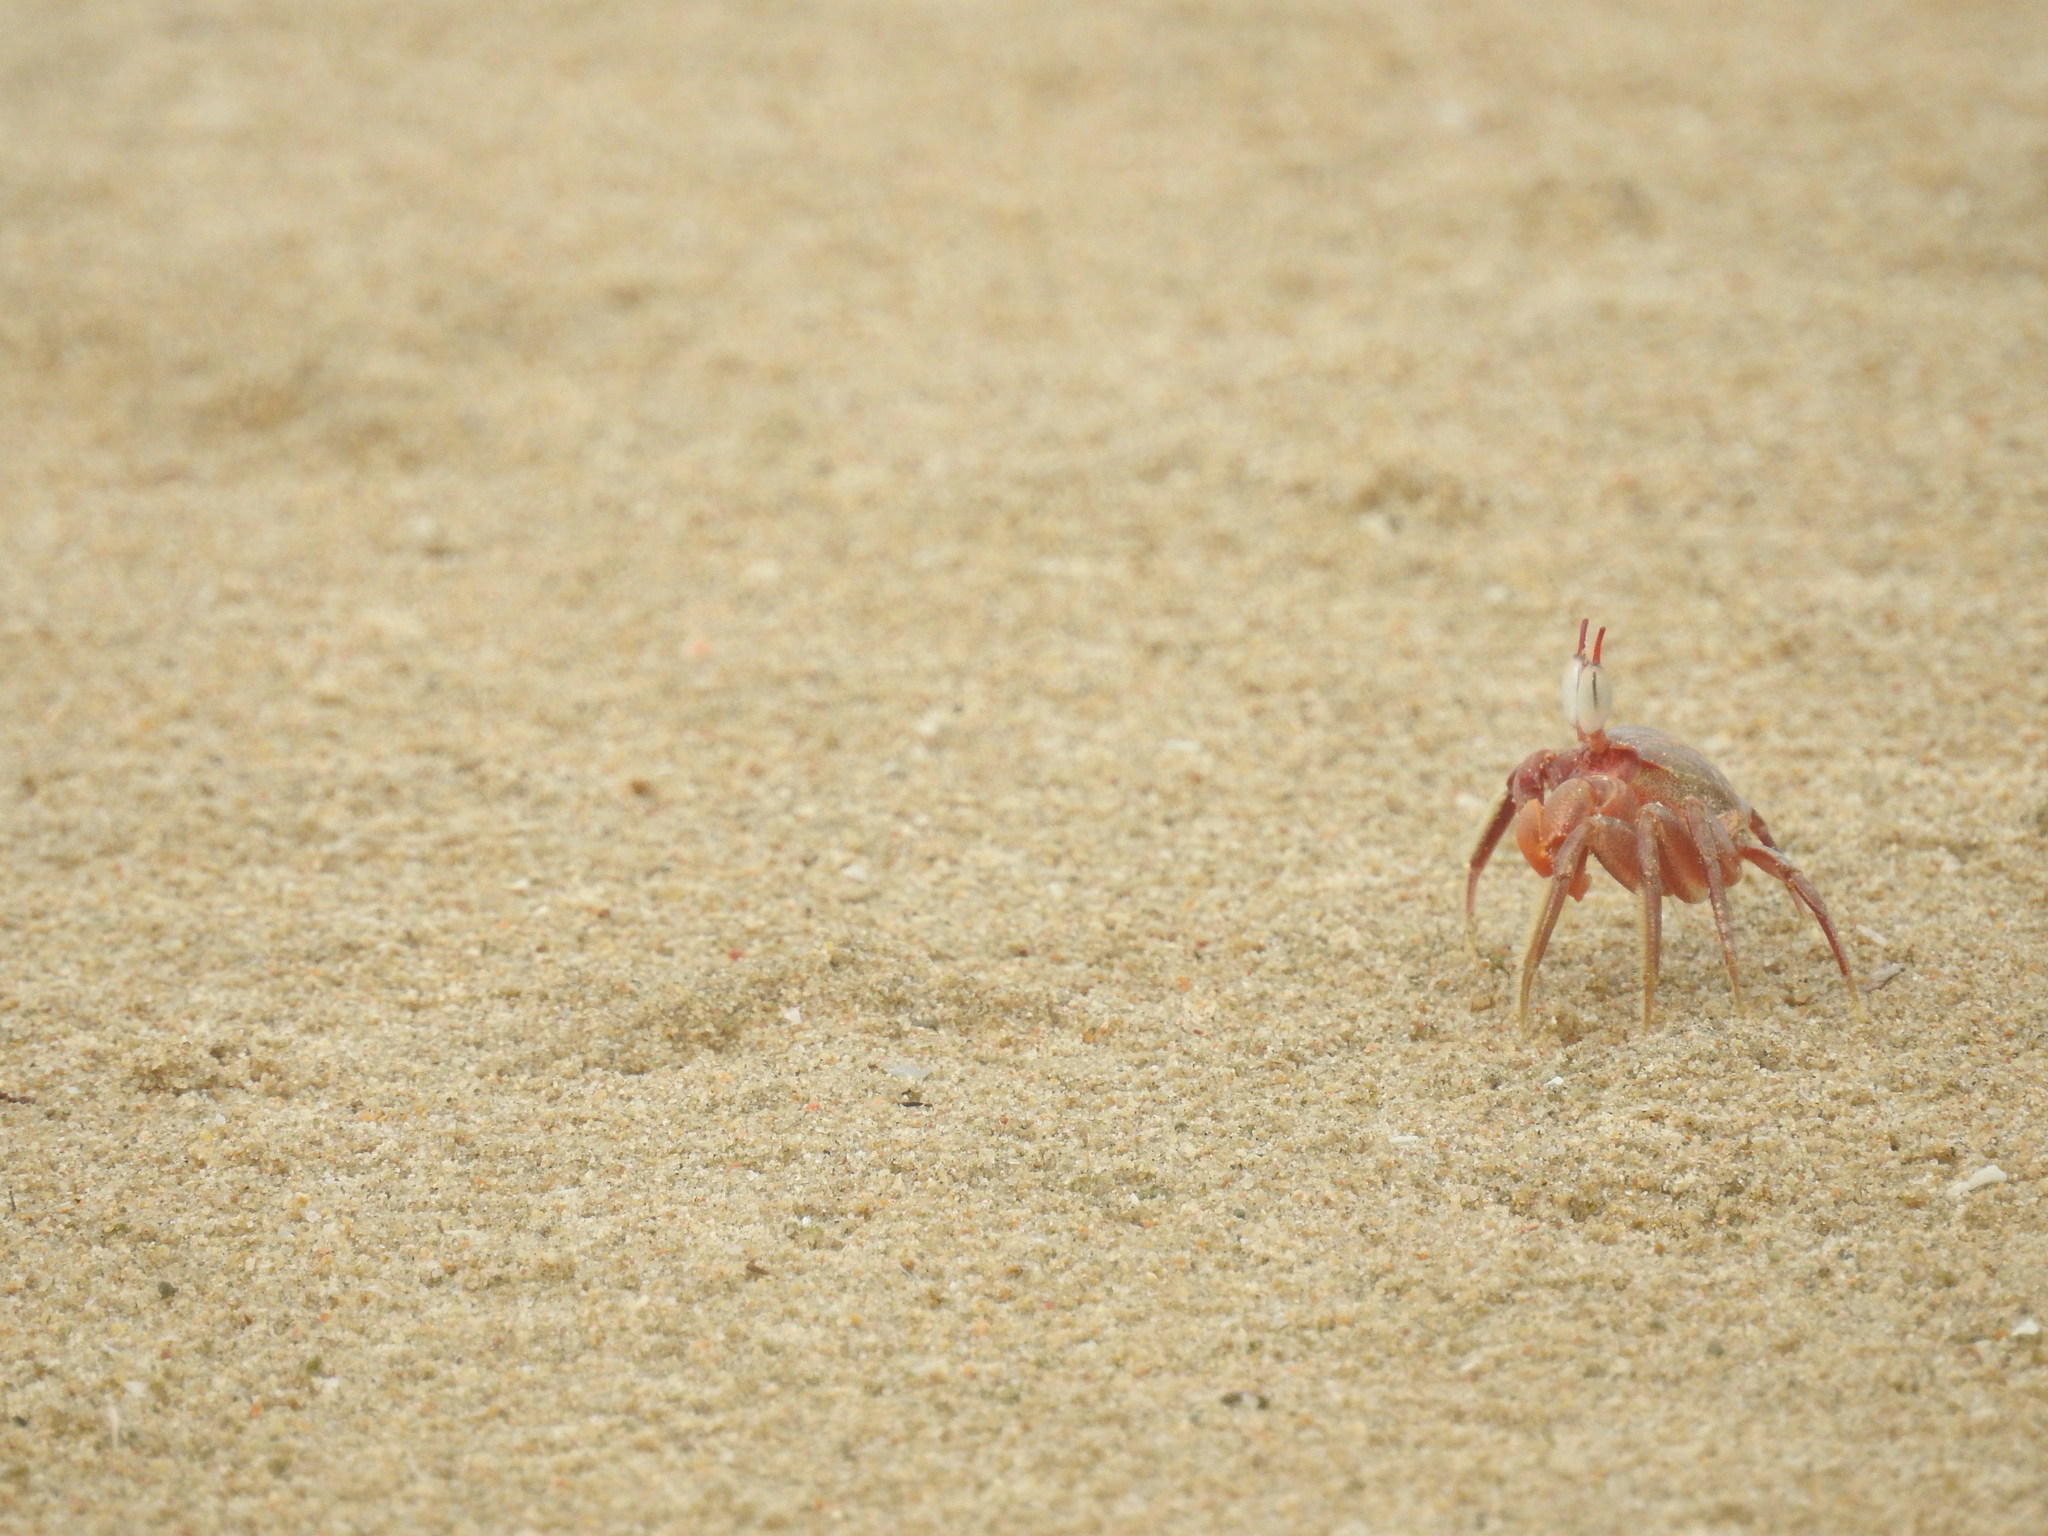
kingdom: Animalia
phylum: Arthropoda
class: Malacostraca
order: Decapoda
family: Ocypodidae
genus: Ocypode
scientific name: Ocypode ceratophthalmus
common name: Indo-pacific ghost crab
